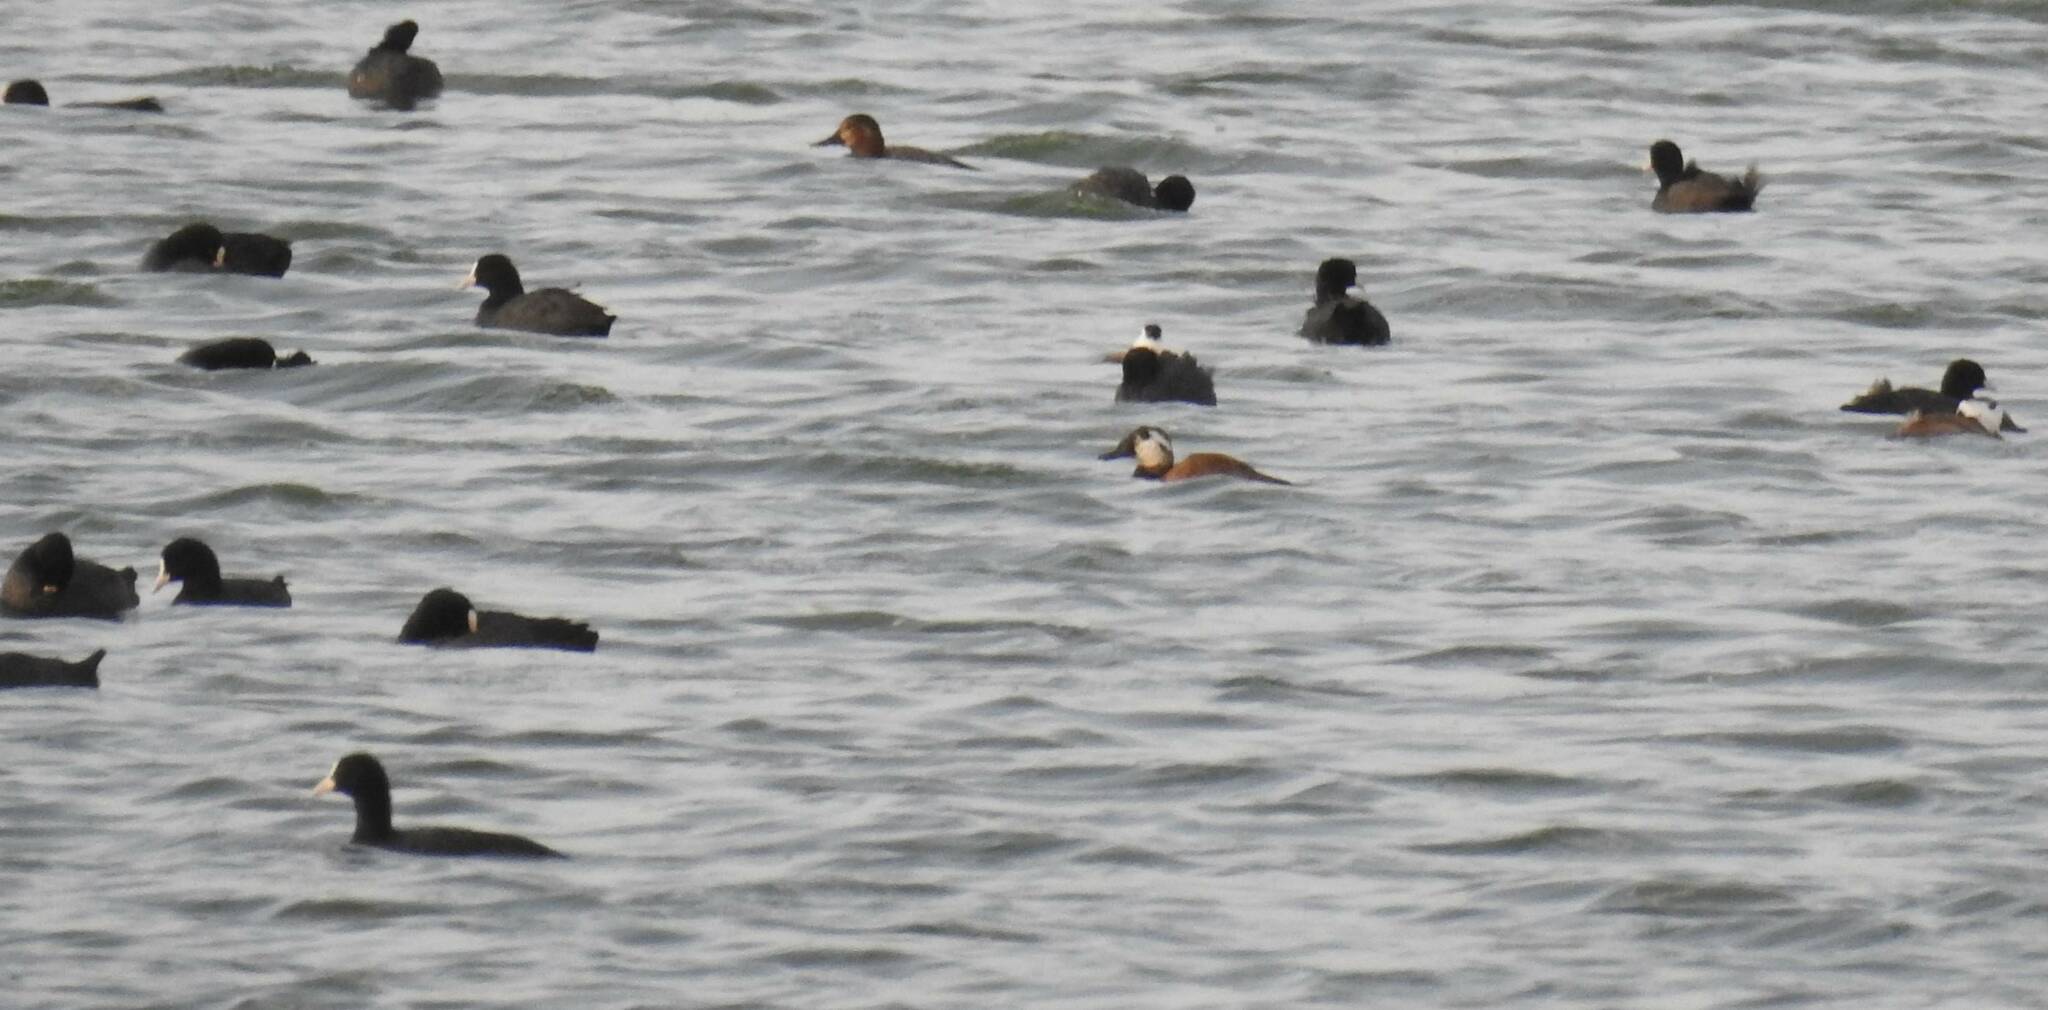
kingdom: Animalia
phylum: Chordata
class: Aves
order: Anseriformes
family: Anatidae
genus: Oxyura
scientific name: Oxyura leucocephala
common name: White-headed duck
